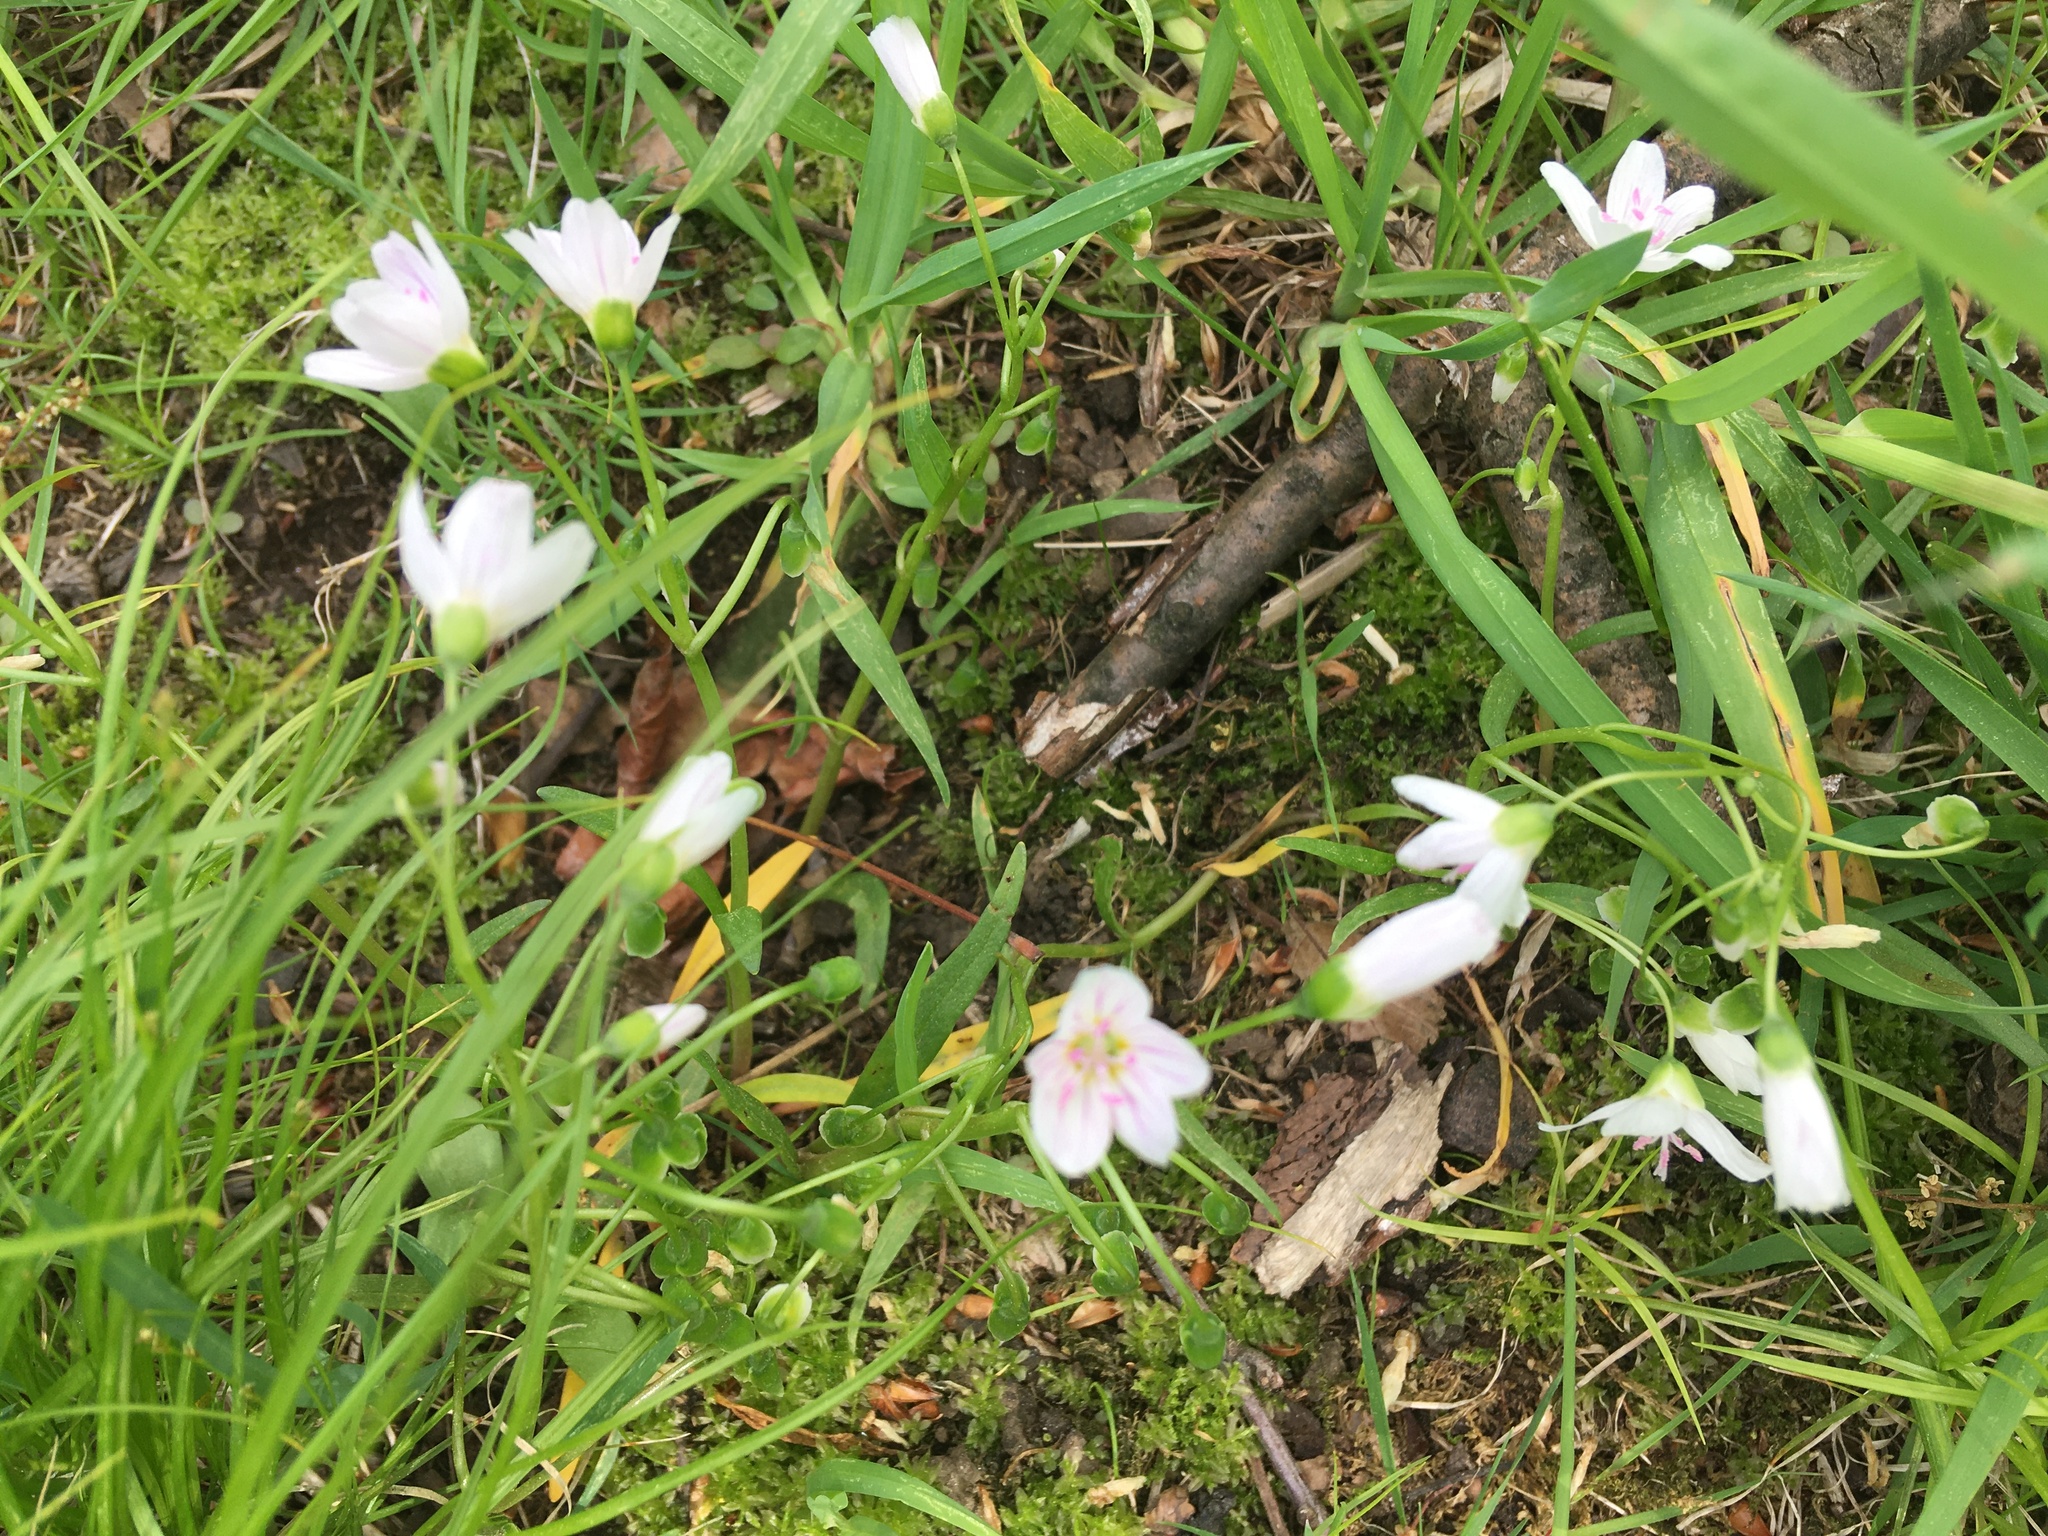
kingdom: Plantae
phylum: Tracheophyta
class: Magnoliopsida
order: Caryophyllales
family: Montiaceae
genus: Claytonia
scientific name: Claytonia virginica
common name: Virginia springbeauty
